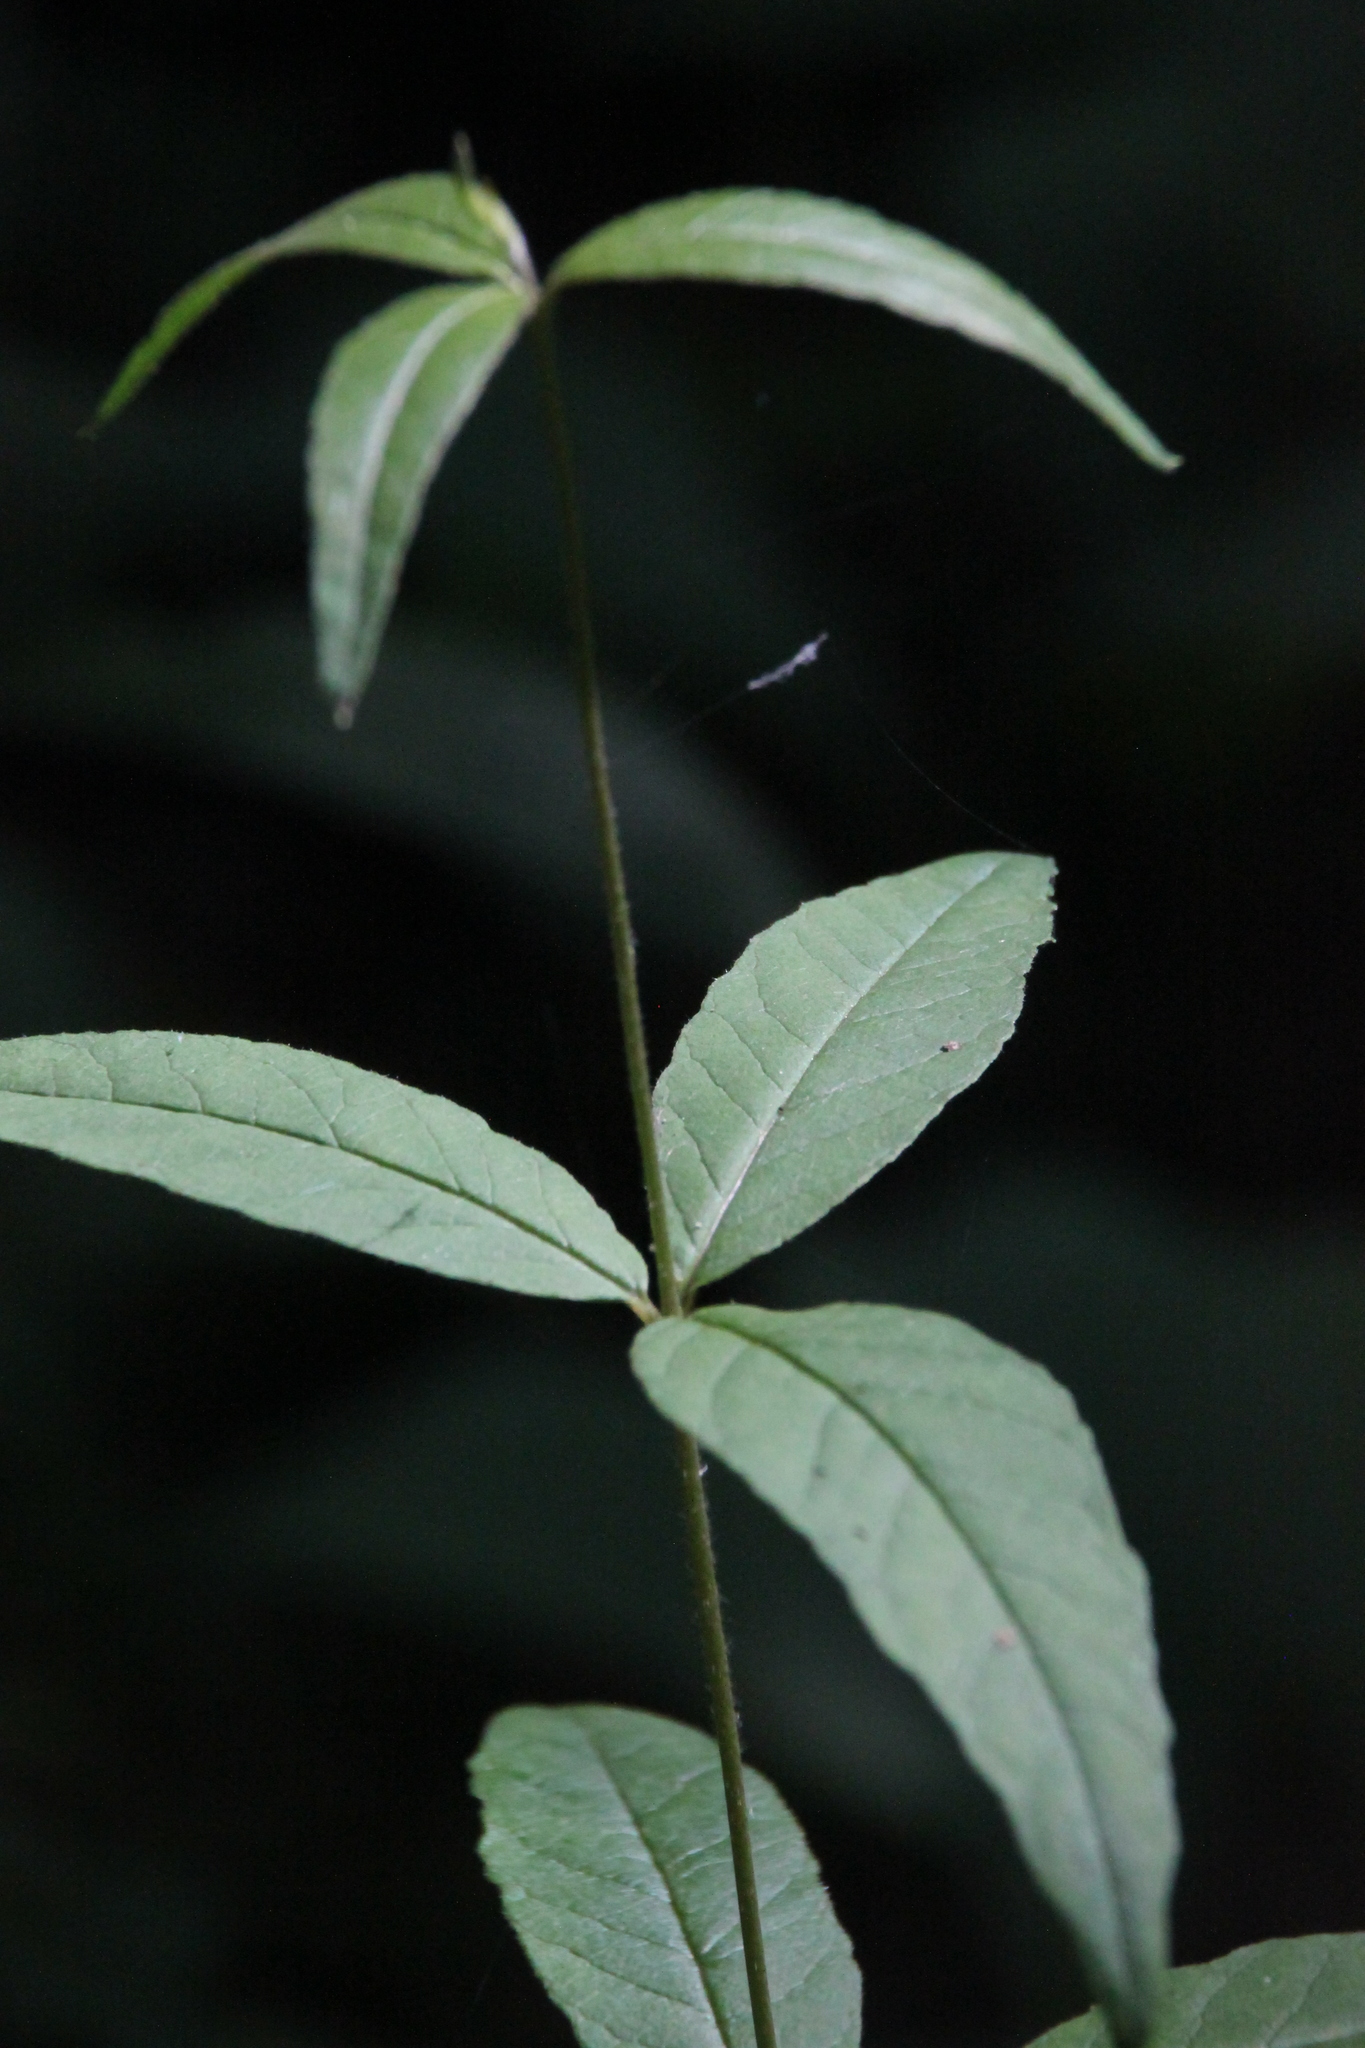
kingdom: Plantae
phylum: Tracheophyta
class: Magnoliopsida
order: Ericales
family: Primulaceae
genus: Lysimachia
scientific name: Lysimachia vulgaris
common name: Yellow loosestrife
